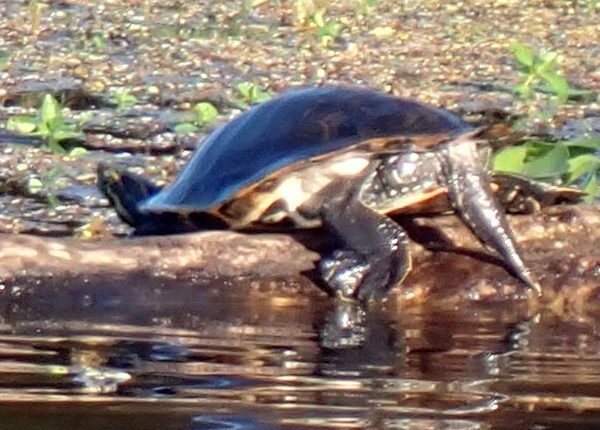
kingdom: Animalia
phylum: Chordata
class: Testudines
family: Emydidae
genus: Pseudemys
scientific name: Pseudemys concinna
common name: Eastern river cooter
